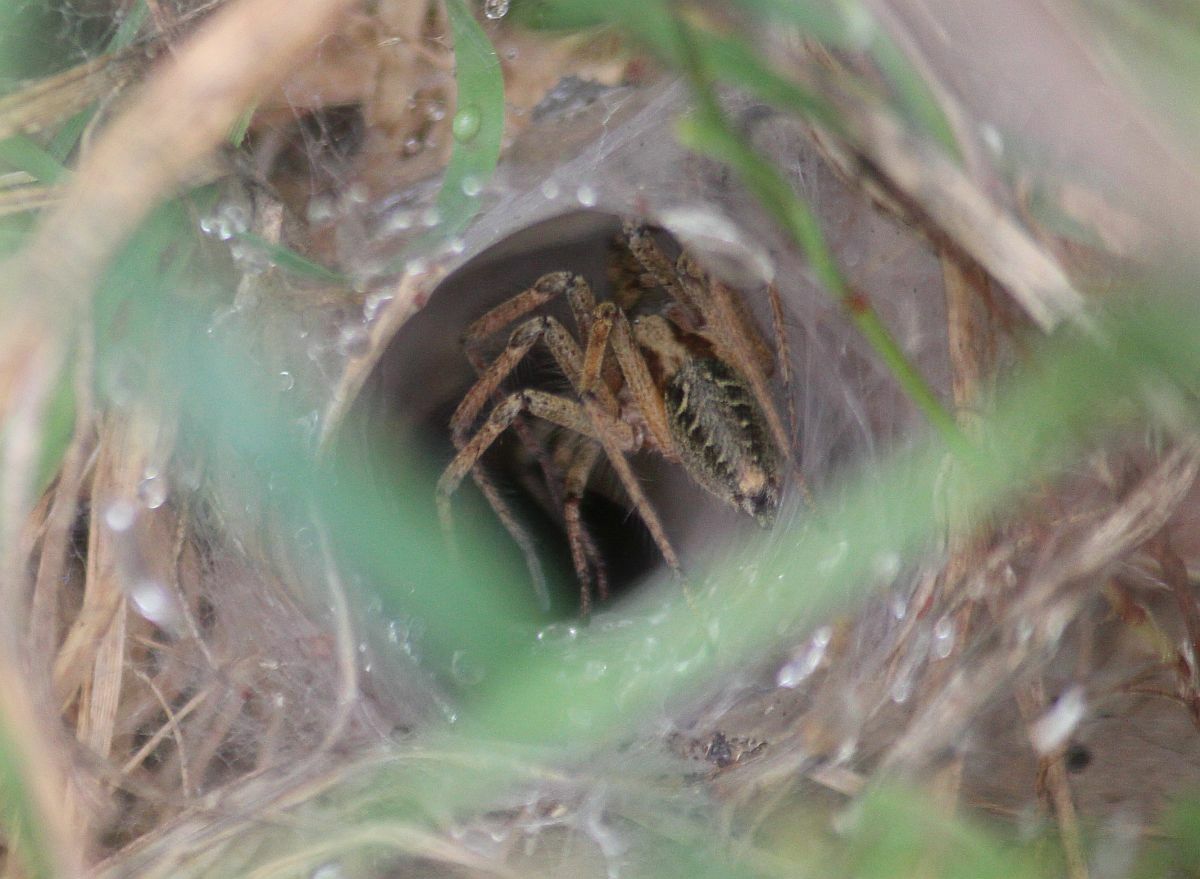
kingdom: Animalia
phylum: Arthropoda
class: Arachnida
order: Araneae
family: Agelenidae
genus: Agelena
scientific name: Agelena labyrinthica
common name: Labyrinth spider
